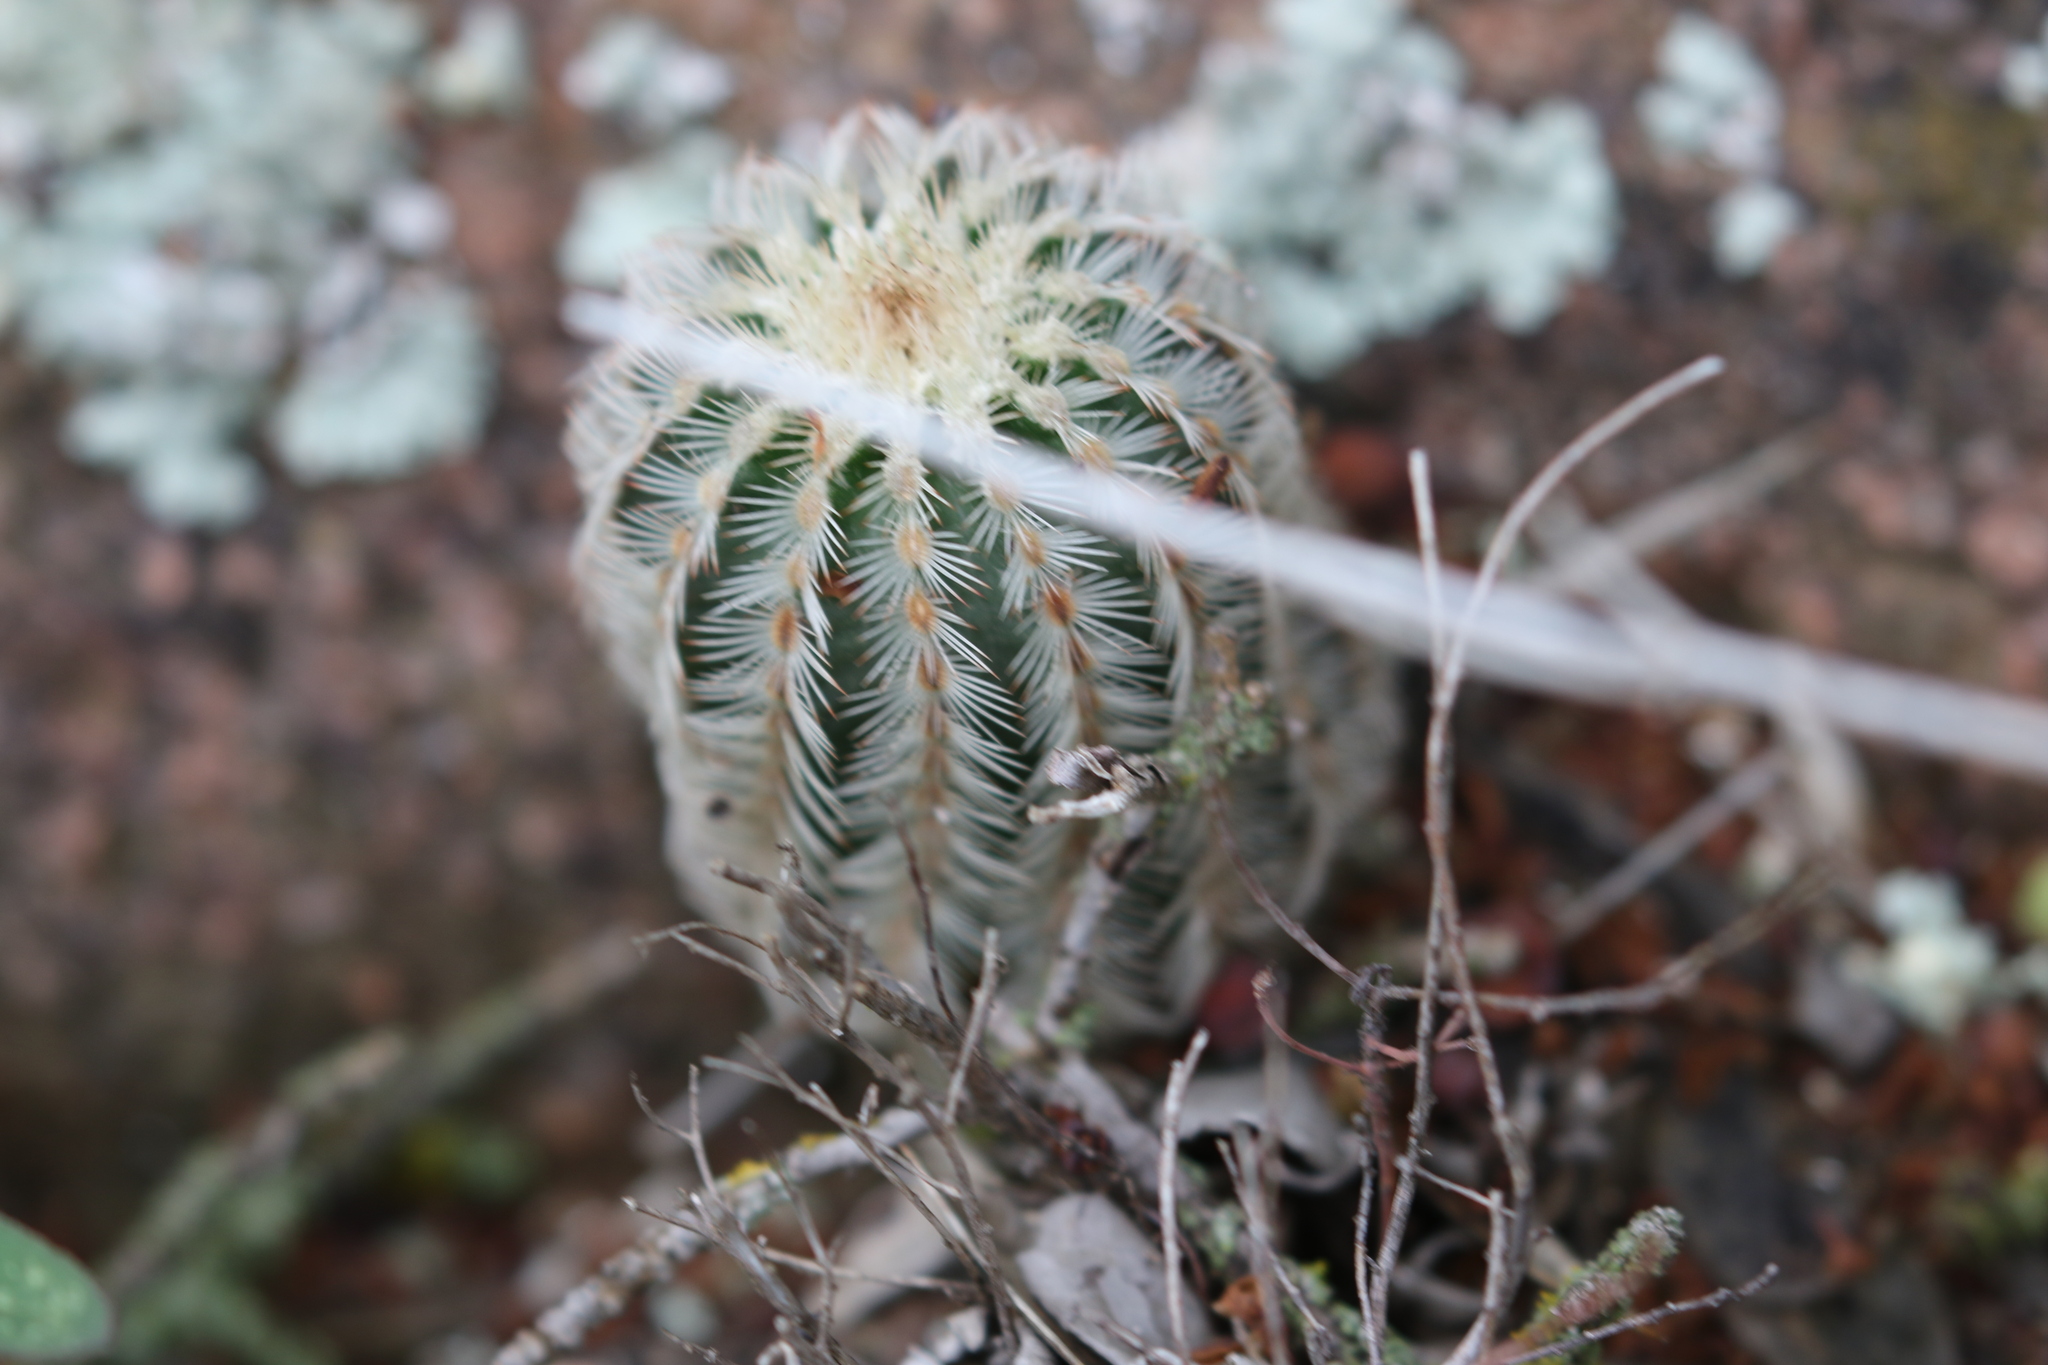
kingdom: Plantae
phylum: Tracheophyta
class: Magnoliopsida
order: Caryophyllales
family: Cactaceae
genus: Echinocereus
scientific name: Echinocereus reichenbachii
